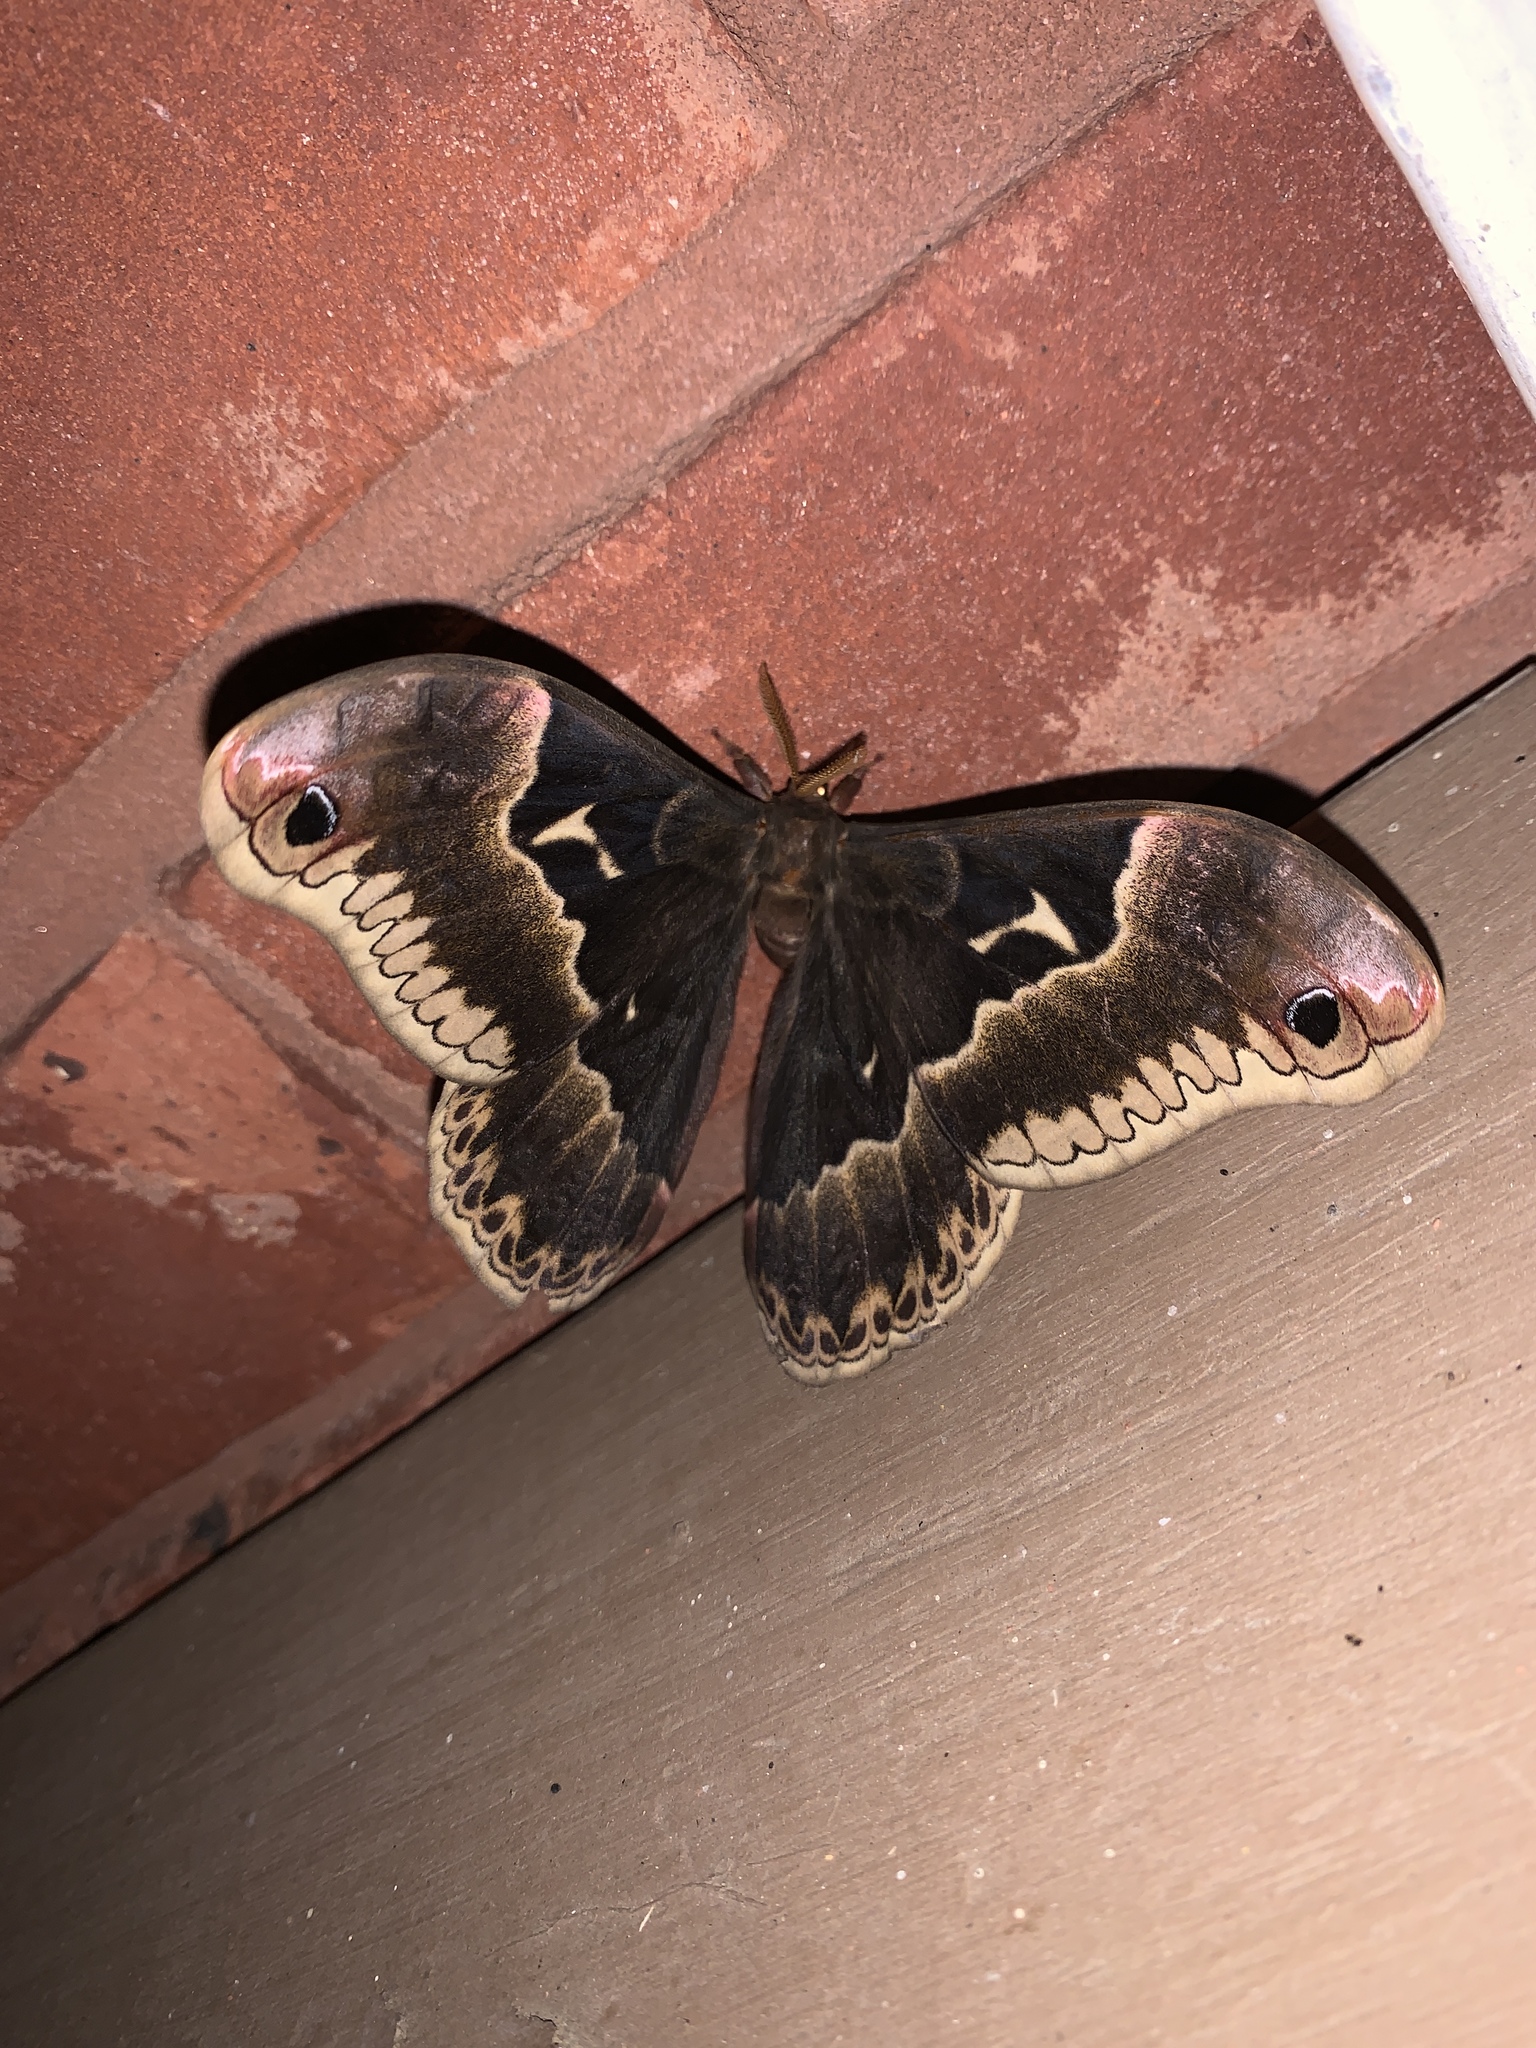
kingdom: Animalia
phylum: Arthropoda
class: Insecta
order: Lepidoptera
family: Saturniidae
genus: Callosamia
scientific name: Callosamia angulifera
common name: Tulip tree silkmoth
